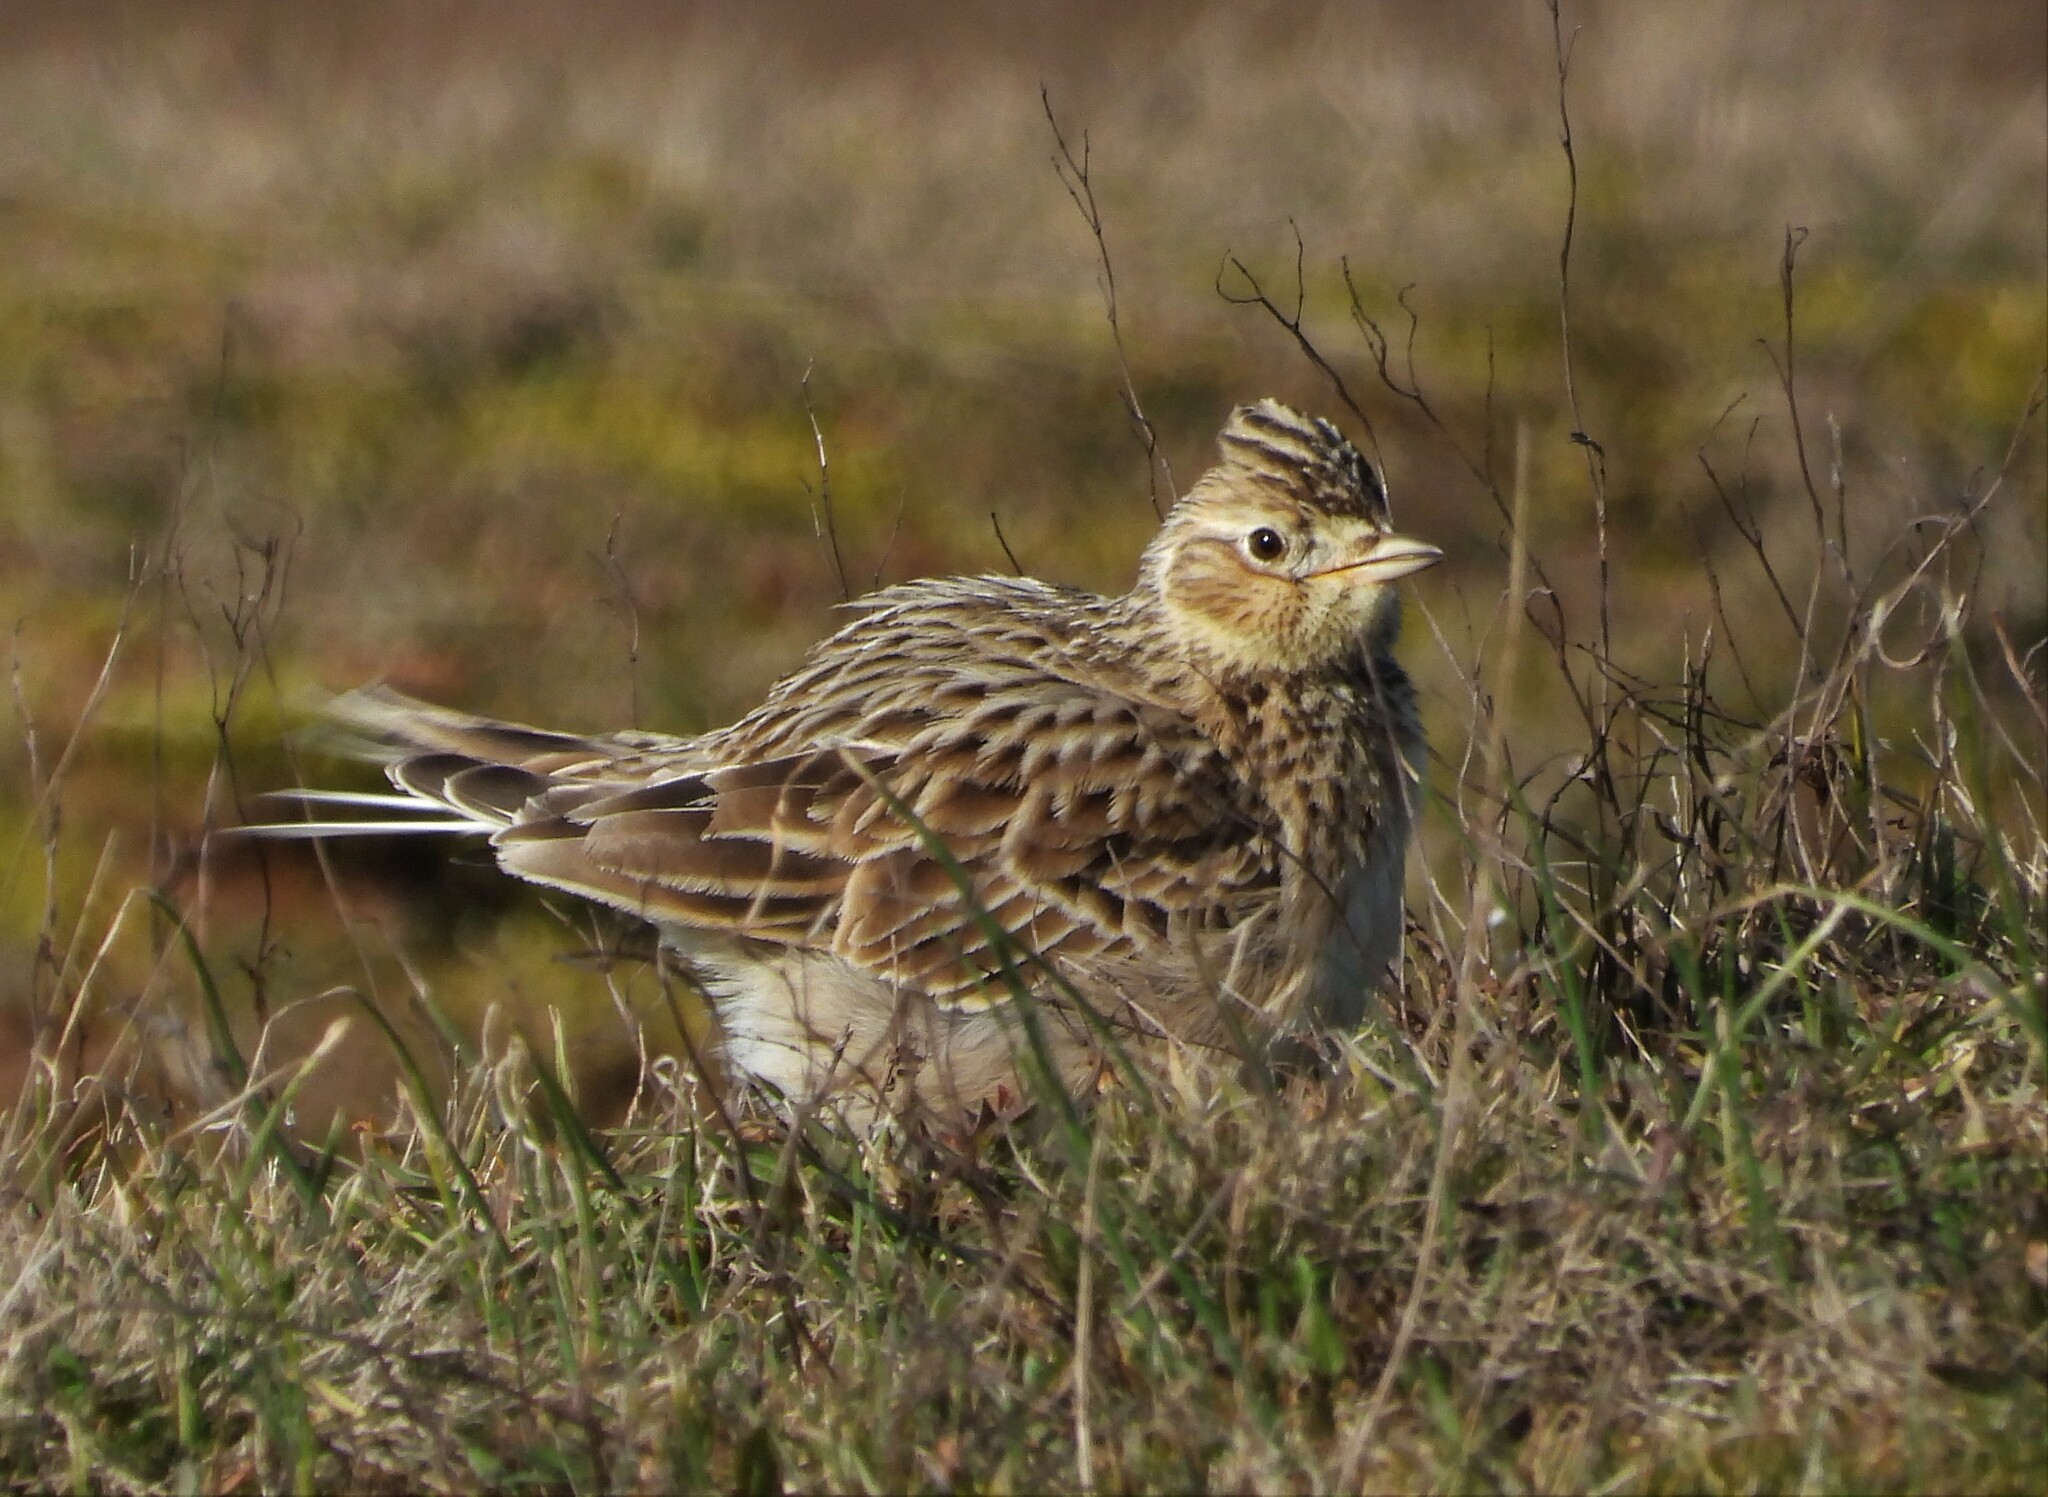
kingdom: Animalia
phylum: Chordata
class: Aves
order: Passeriformes
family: Alaudidae
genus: Alauda
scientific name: Alauda arvensis
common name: Eurasian skylark
